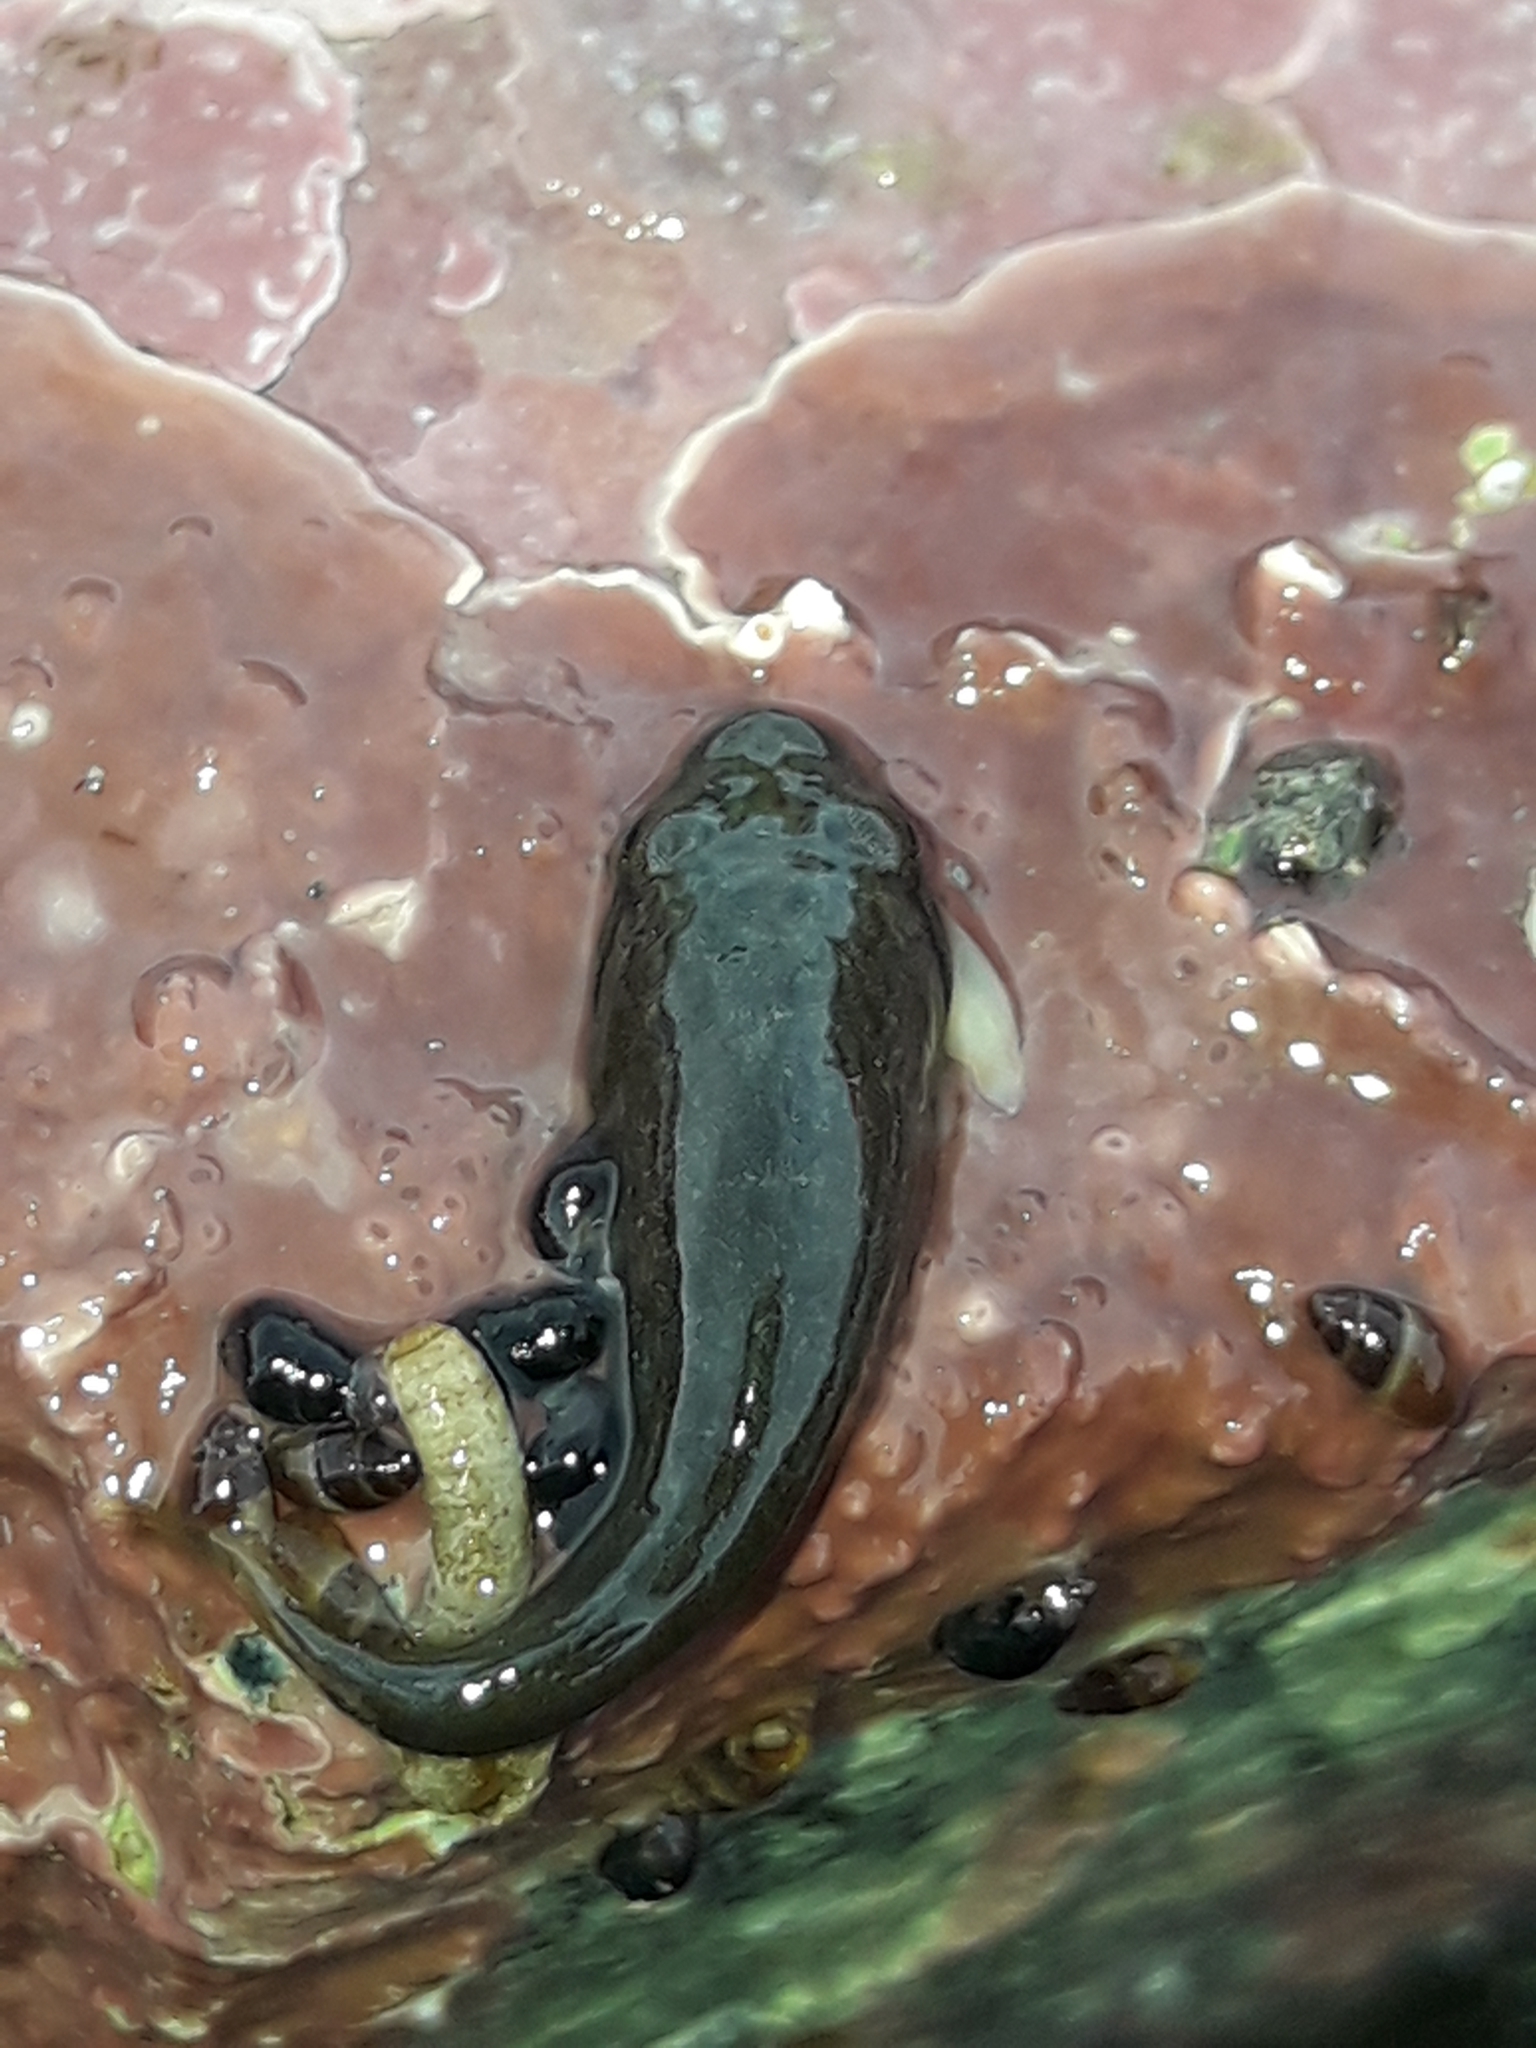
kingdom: Animalia
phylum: Chordata
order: Gobiesociformes
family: Gobiesocidae
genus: Trachelochismus
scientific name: Trachelochismus pinnulatus
